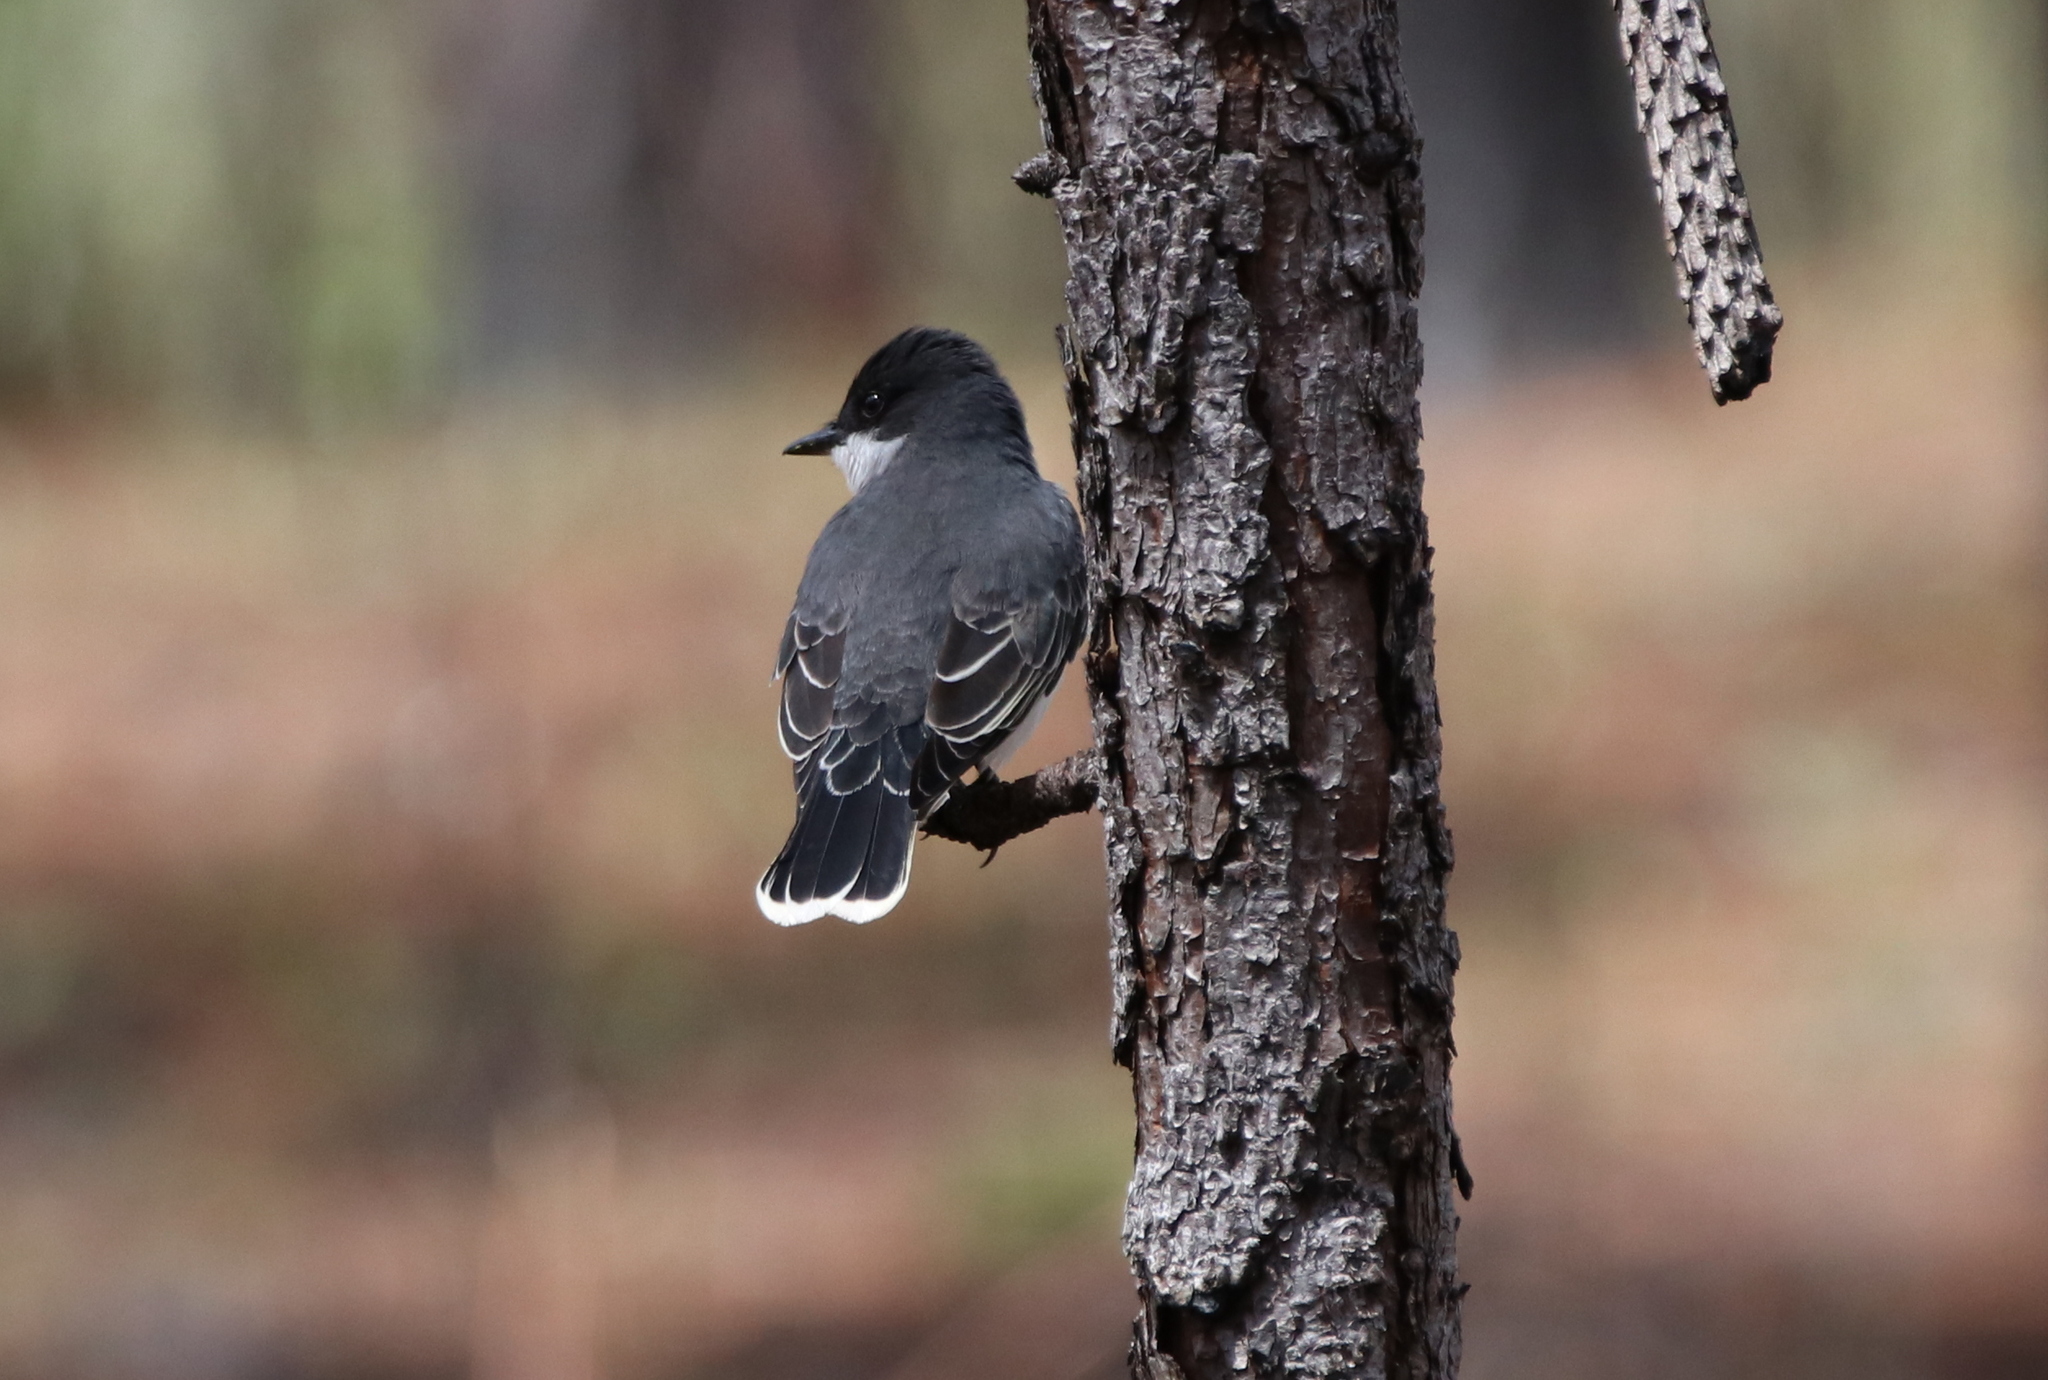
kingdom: Animalia
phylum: Chordata
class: Aves
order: Passeriformes
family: Tyrannidae
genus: Tyrannus
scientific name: Tyrannus tyrannus
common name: Eastern kingbird
